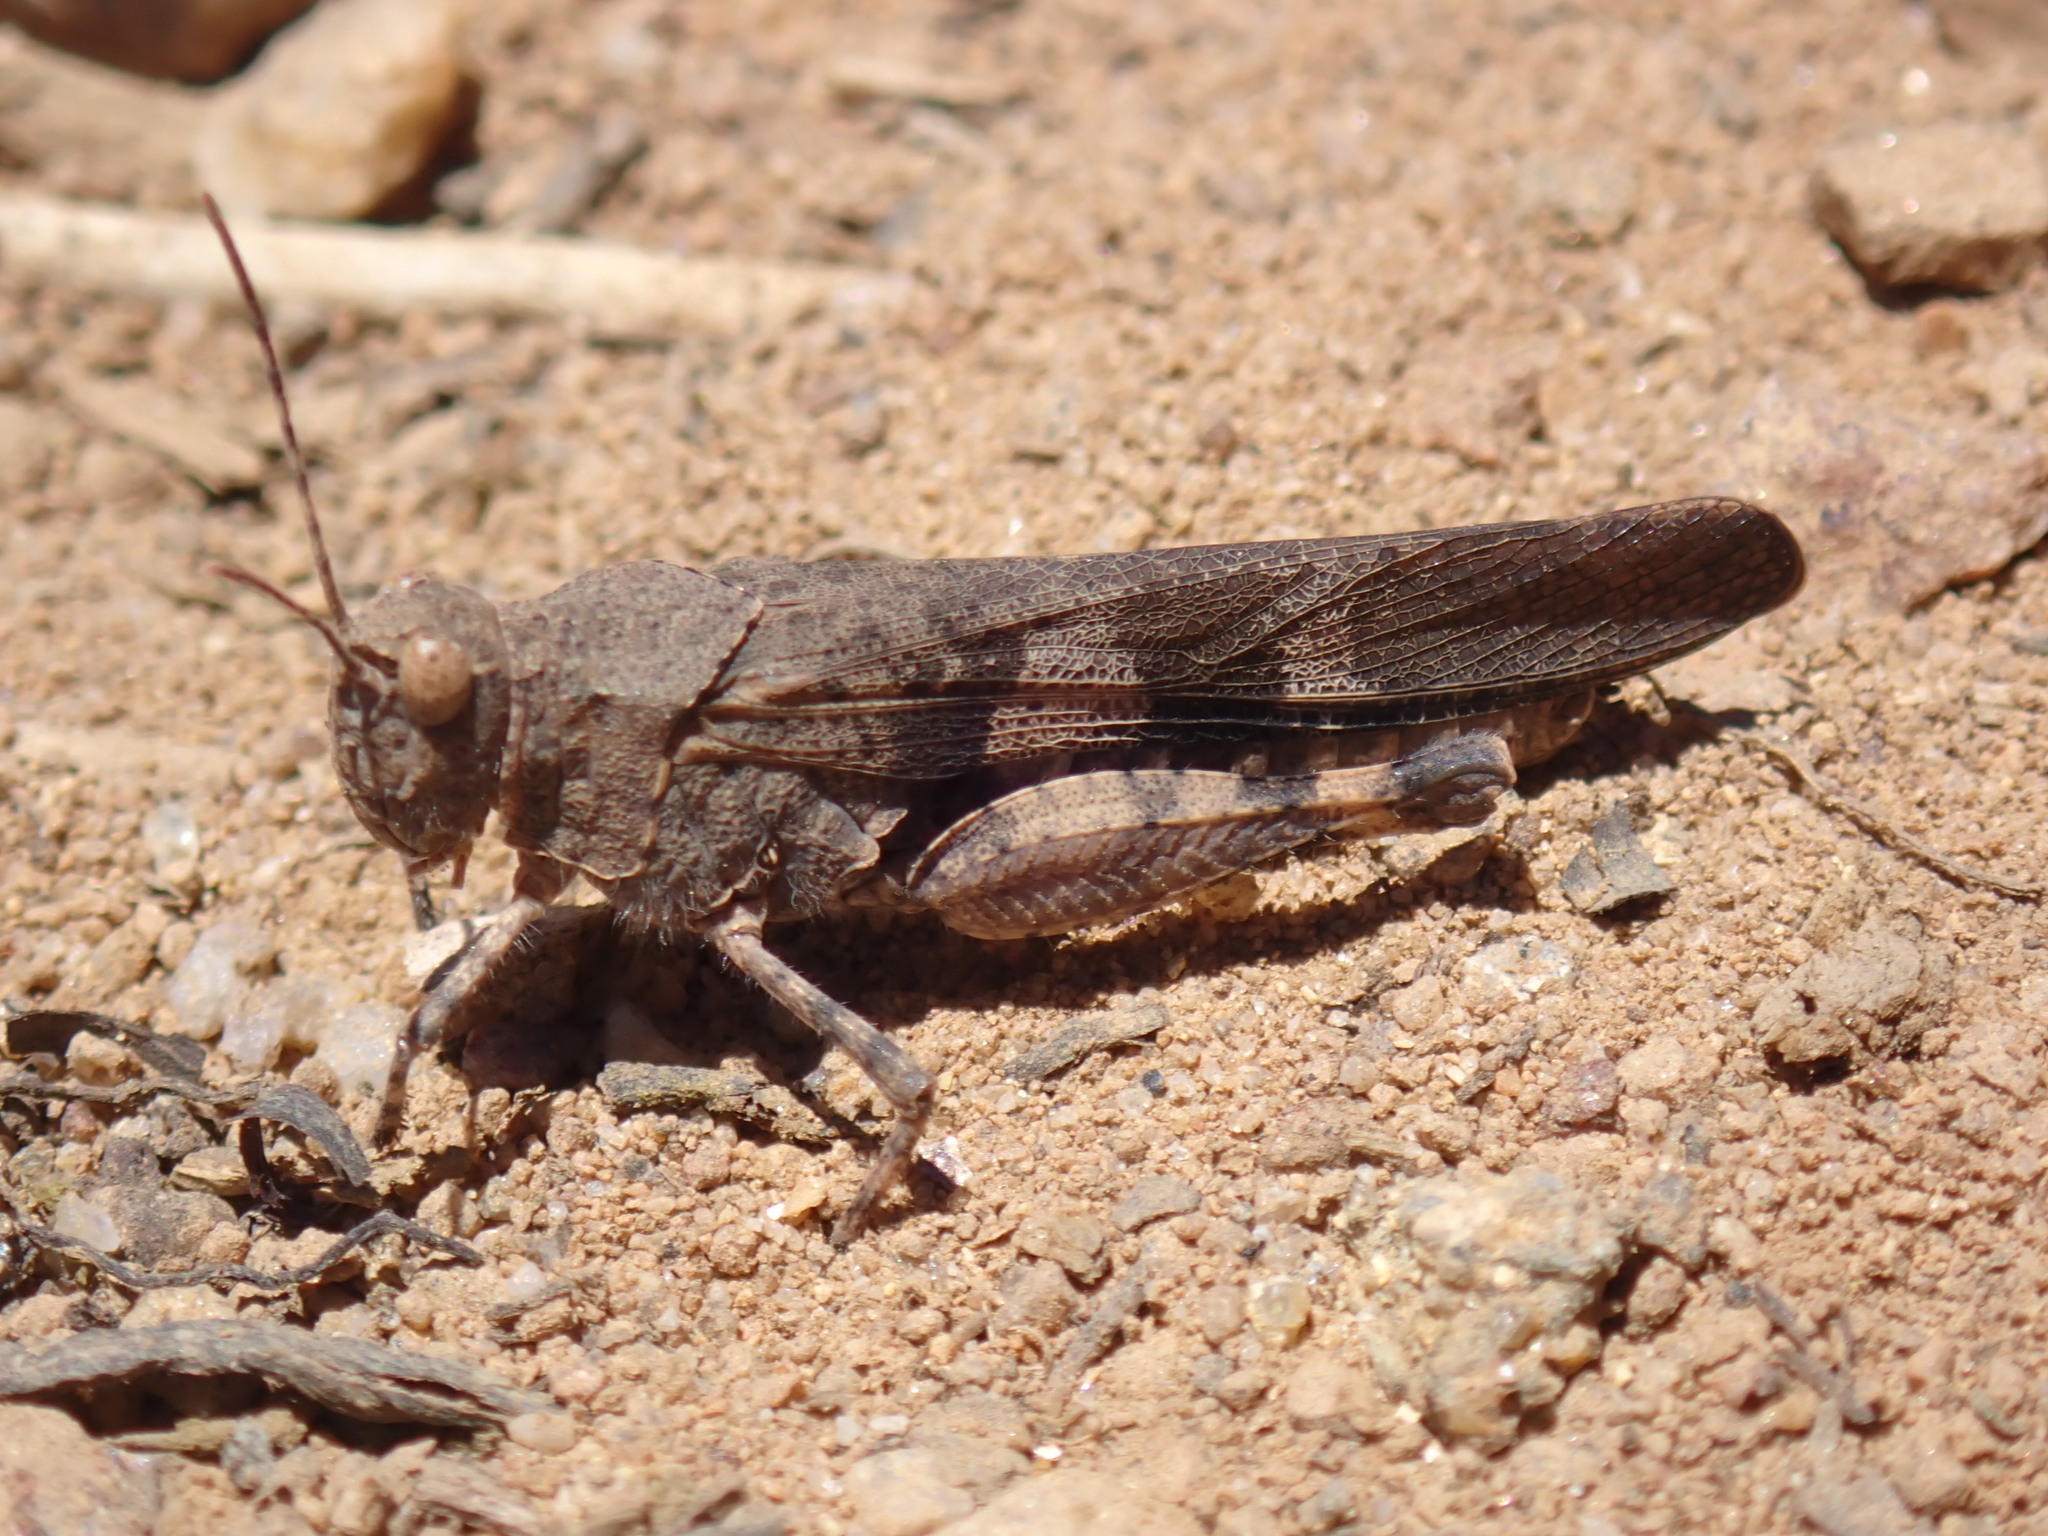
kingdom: Animalia
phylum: Arthropoda
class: Insecta
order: Orthoptera
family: Acrididae
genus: Trimerotropis
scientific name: Trimerotropis fontana
